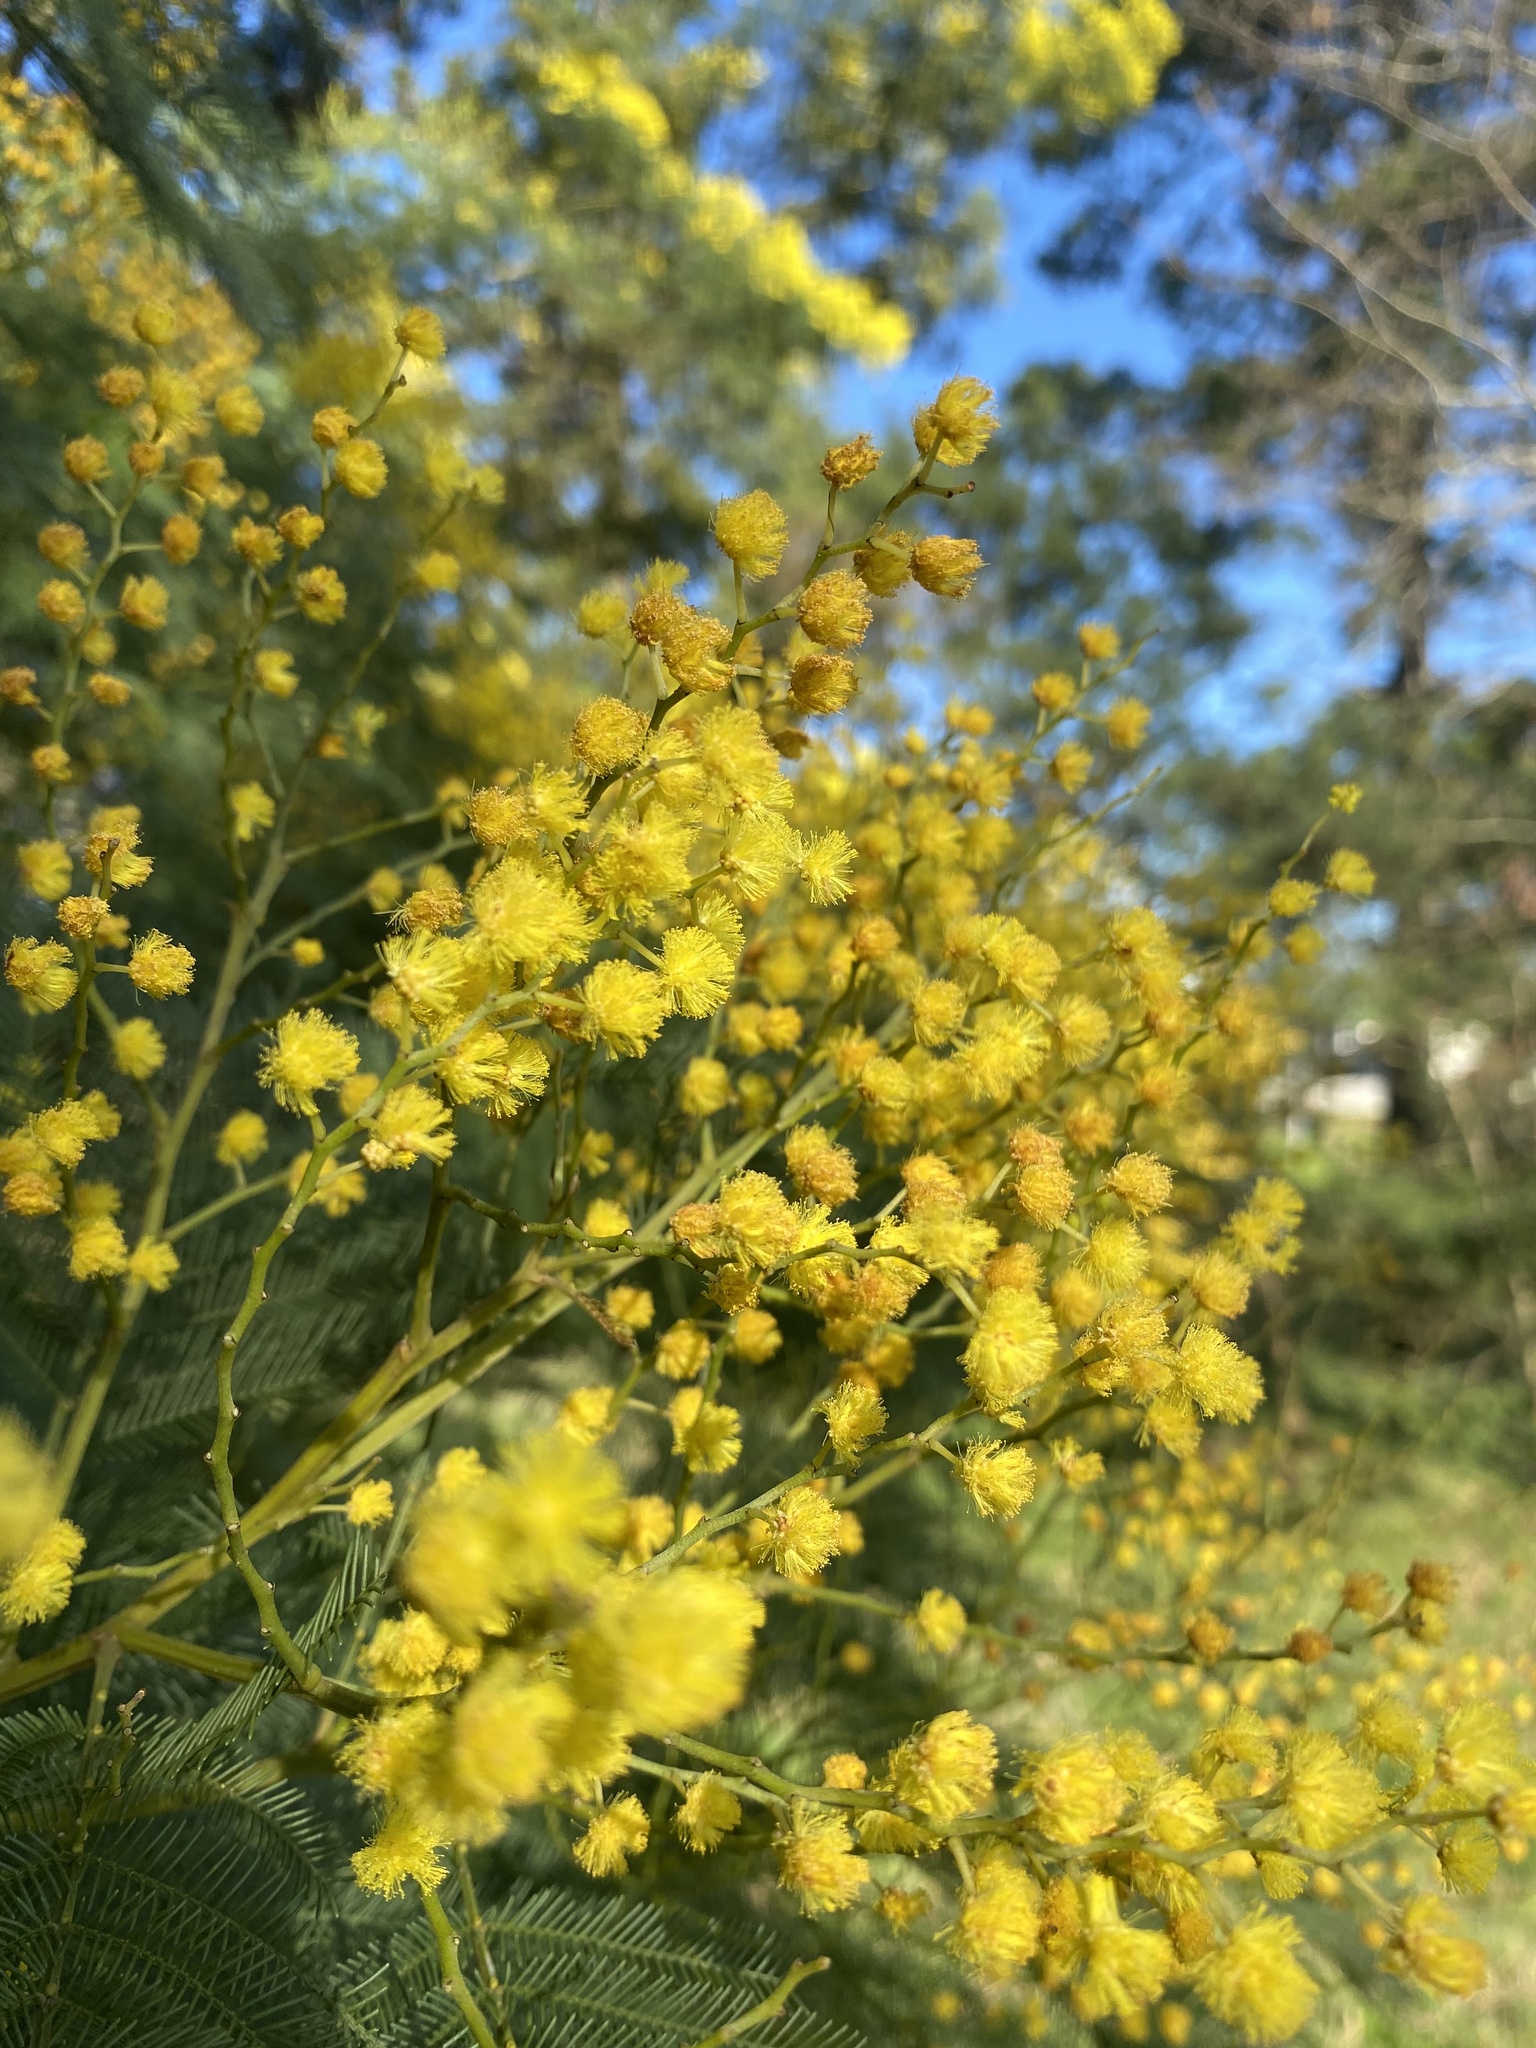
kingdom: Plantae
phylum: Tracheophyta
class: Magnoliopsida
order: Fabales
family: Fabaceae
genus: Acacia
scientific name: Acacia decurrens
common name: Green wattle
